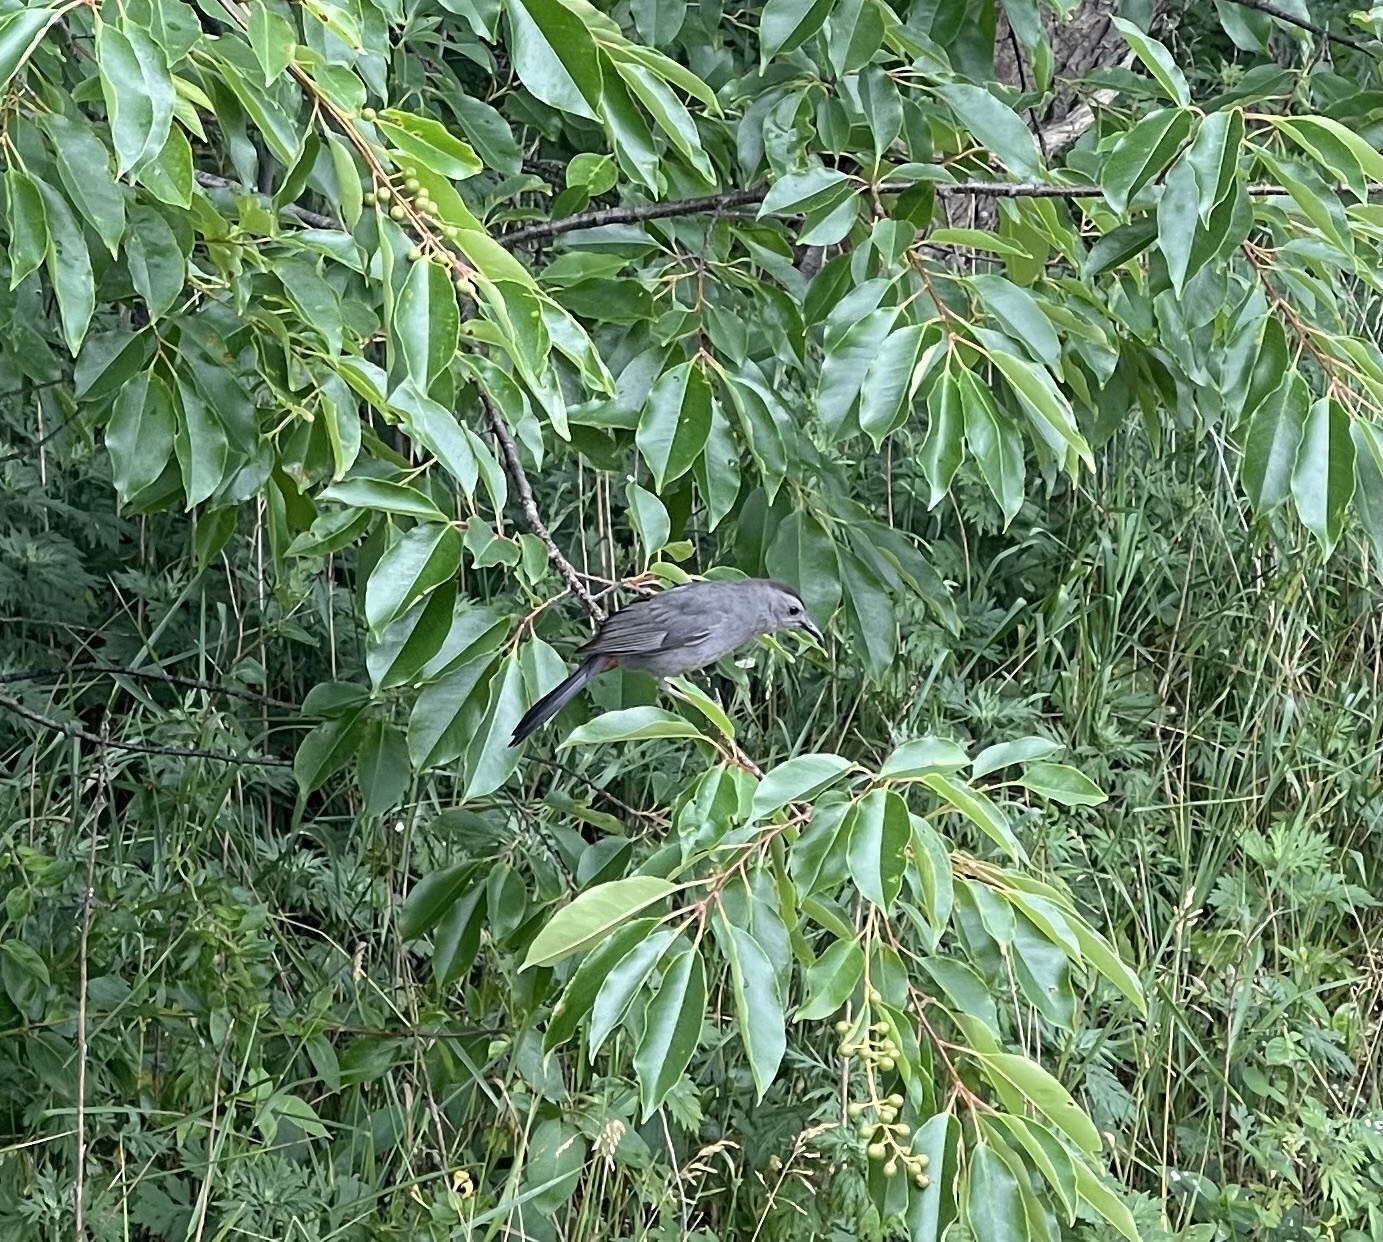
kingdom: Animalia
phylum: Chordata
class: Aves
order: Passeriformes
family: Mimidae
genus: Dumetella
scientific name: Dumetella carolinensis
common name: Gray catbird
